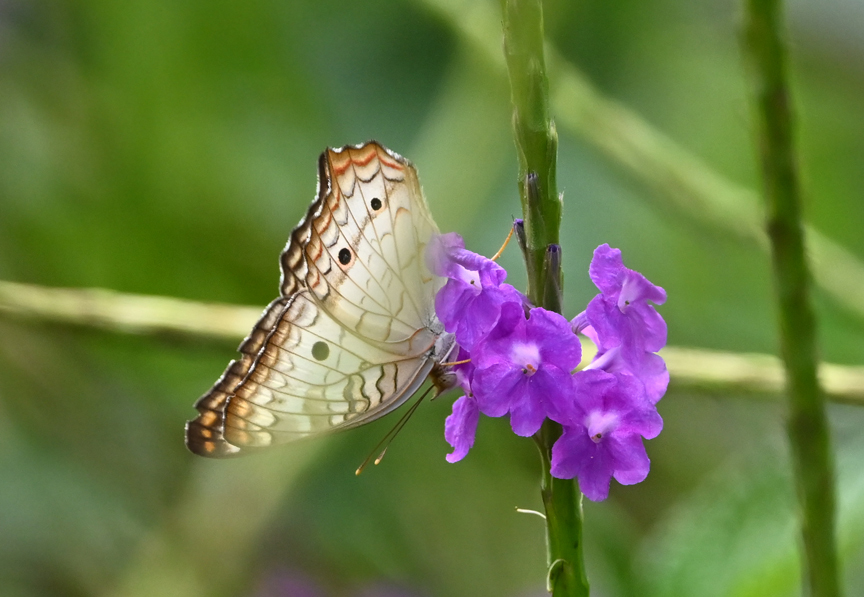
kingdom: Animalia
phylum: Arthropoda
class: Insecta
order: Lepidoptera
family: Nymphalidae
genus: Anartia
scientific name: Anartia jatrophae
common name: White peacock
